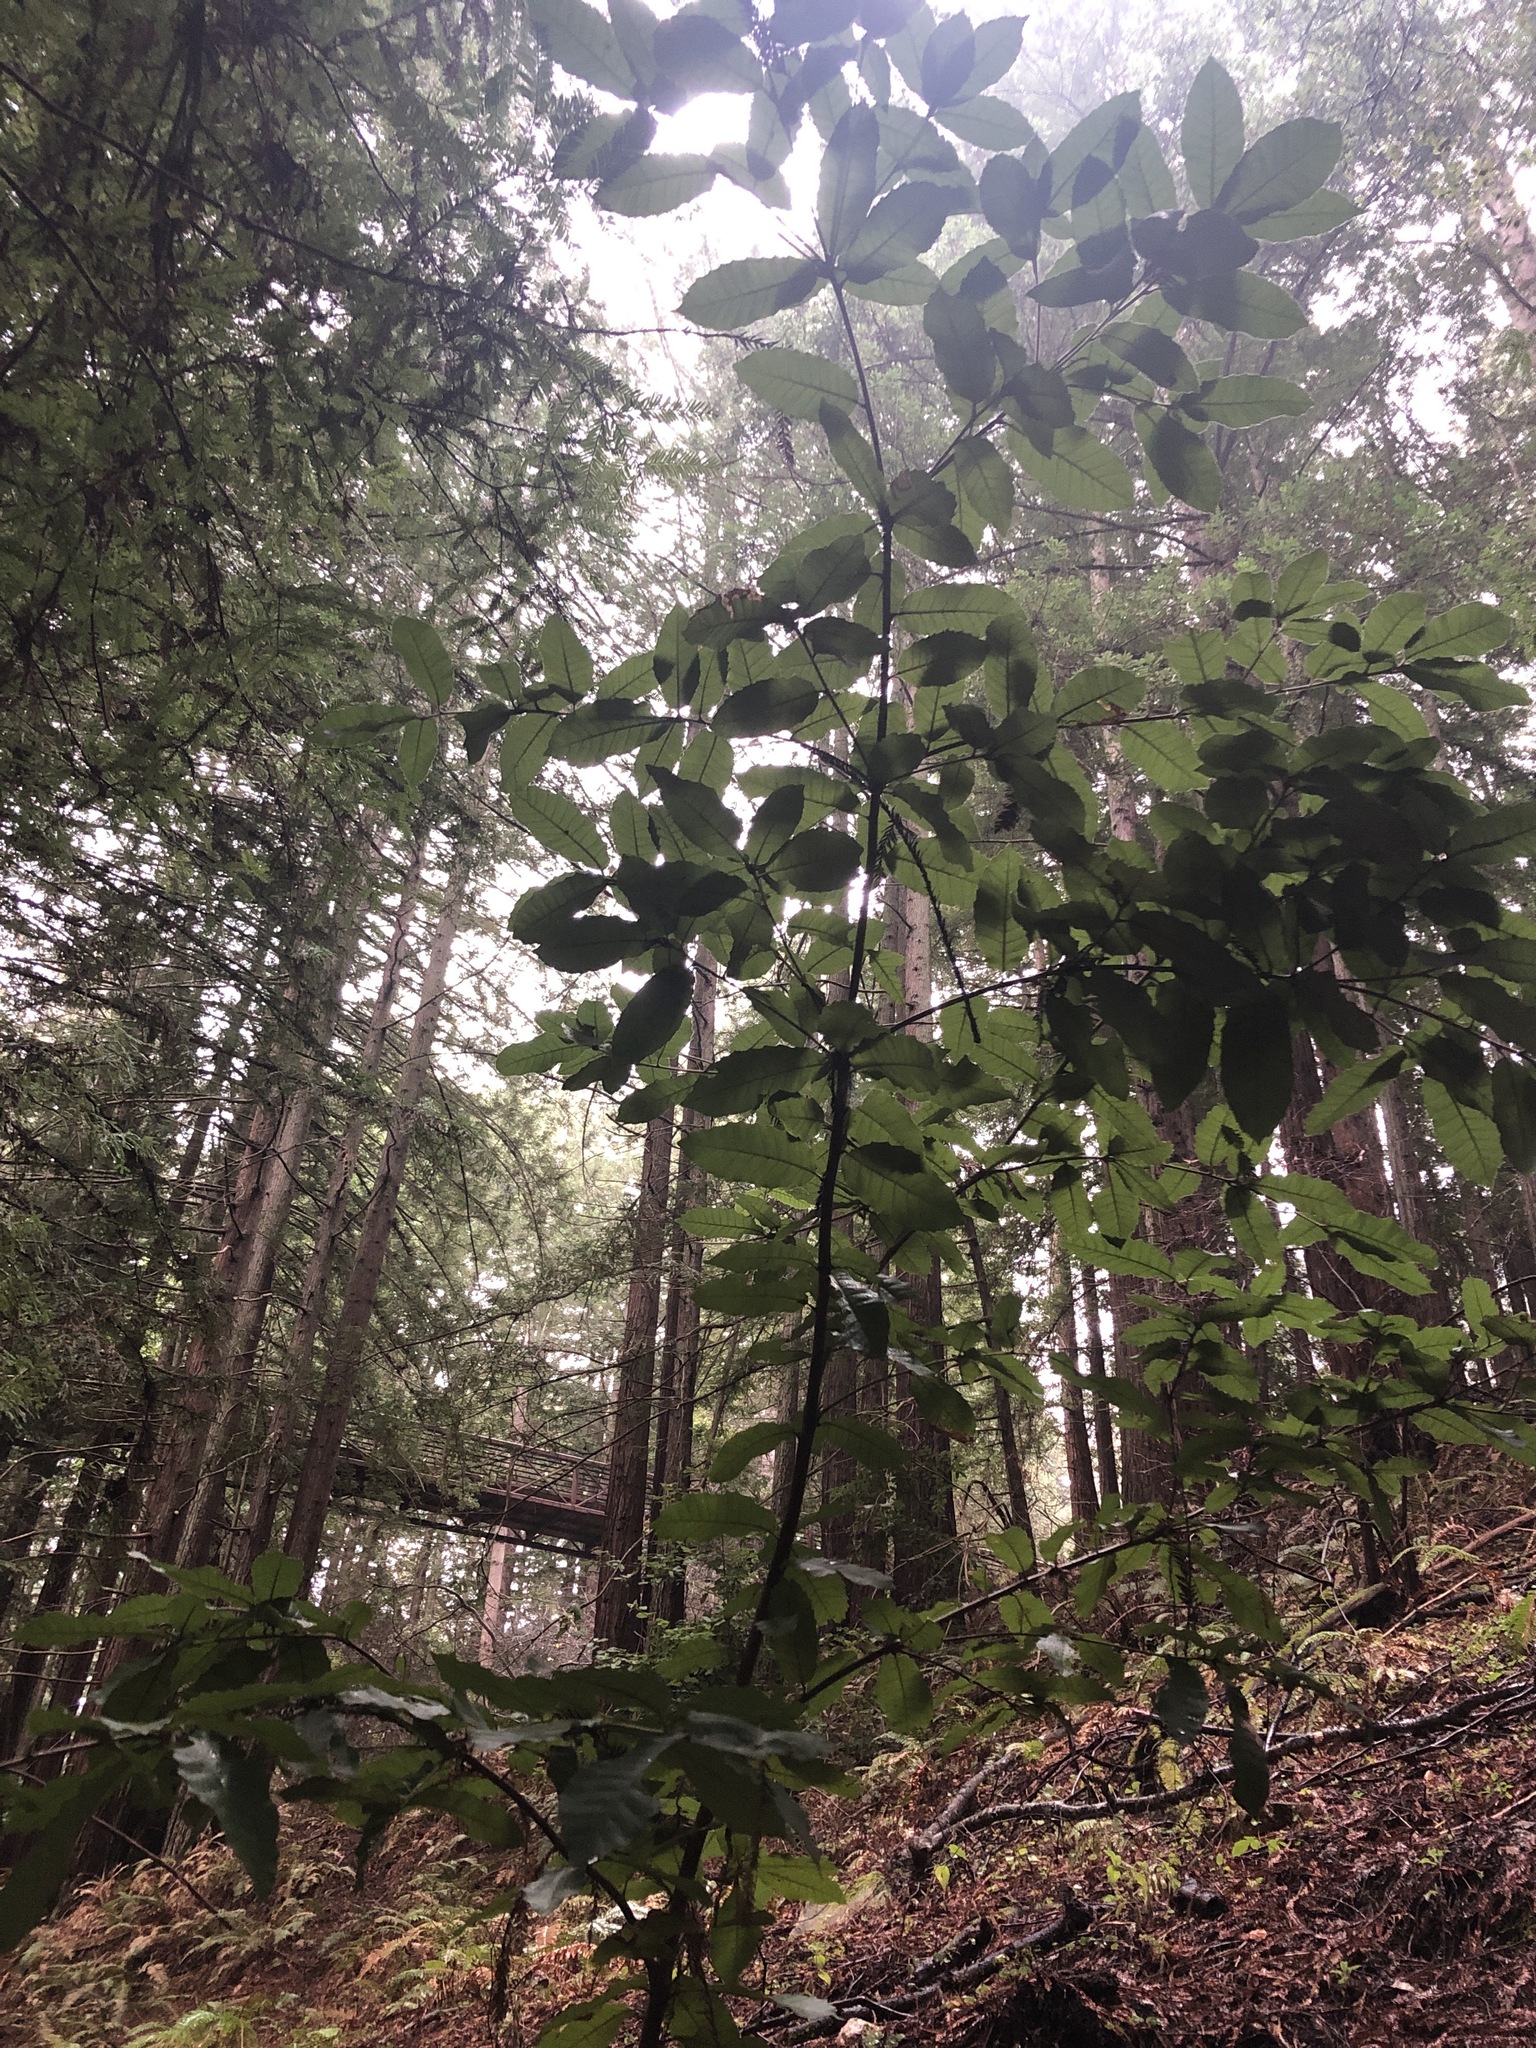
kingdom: Plantae
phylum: Tracheophyta
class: Magnoliopsida
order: Fagales
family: Fagaceae
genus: Notholithocarpus
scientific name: Notholithocarpus densiflorus
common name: Tan bark oak
